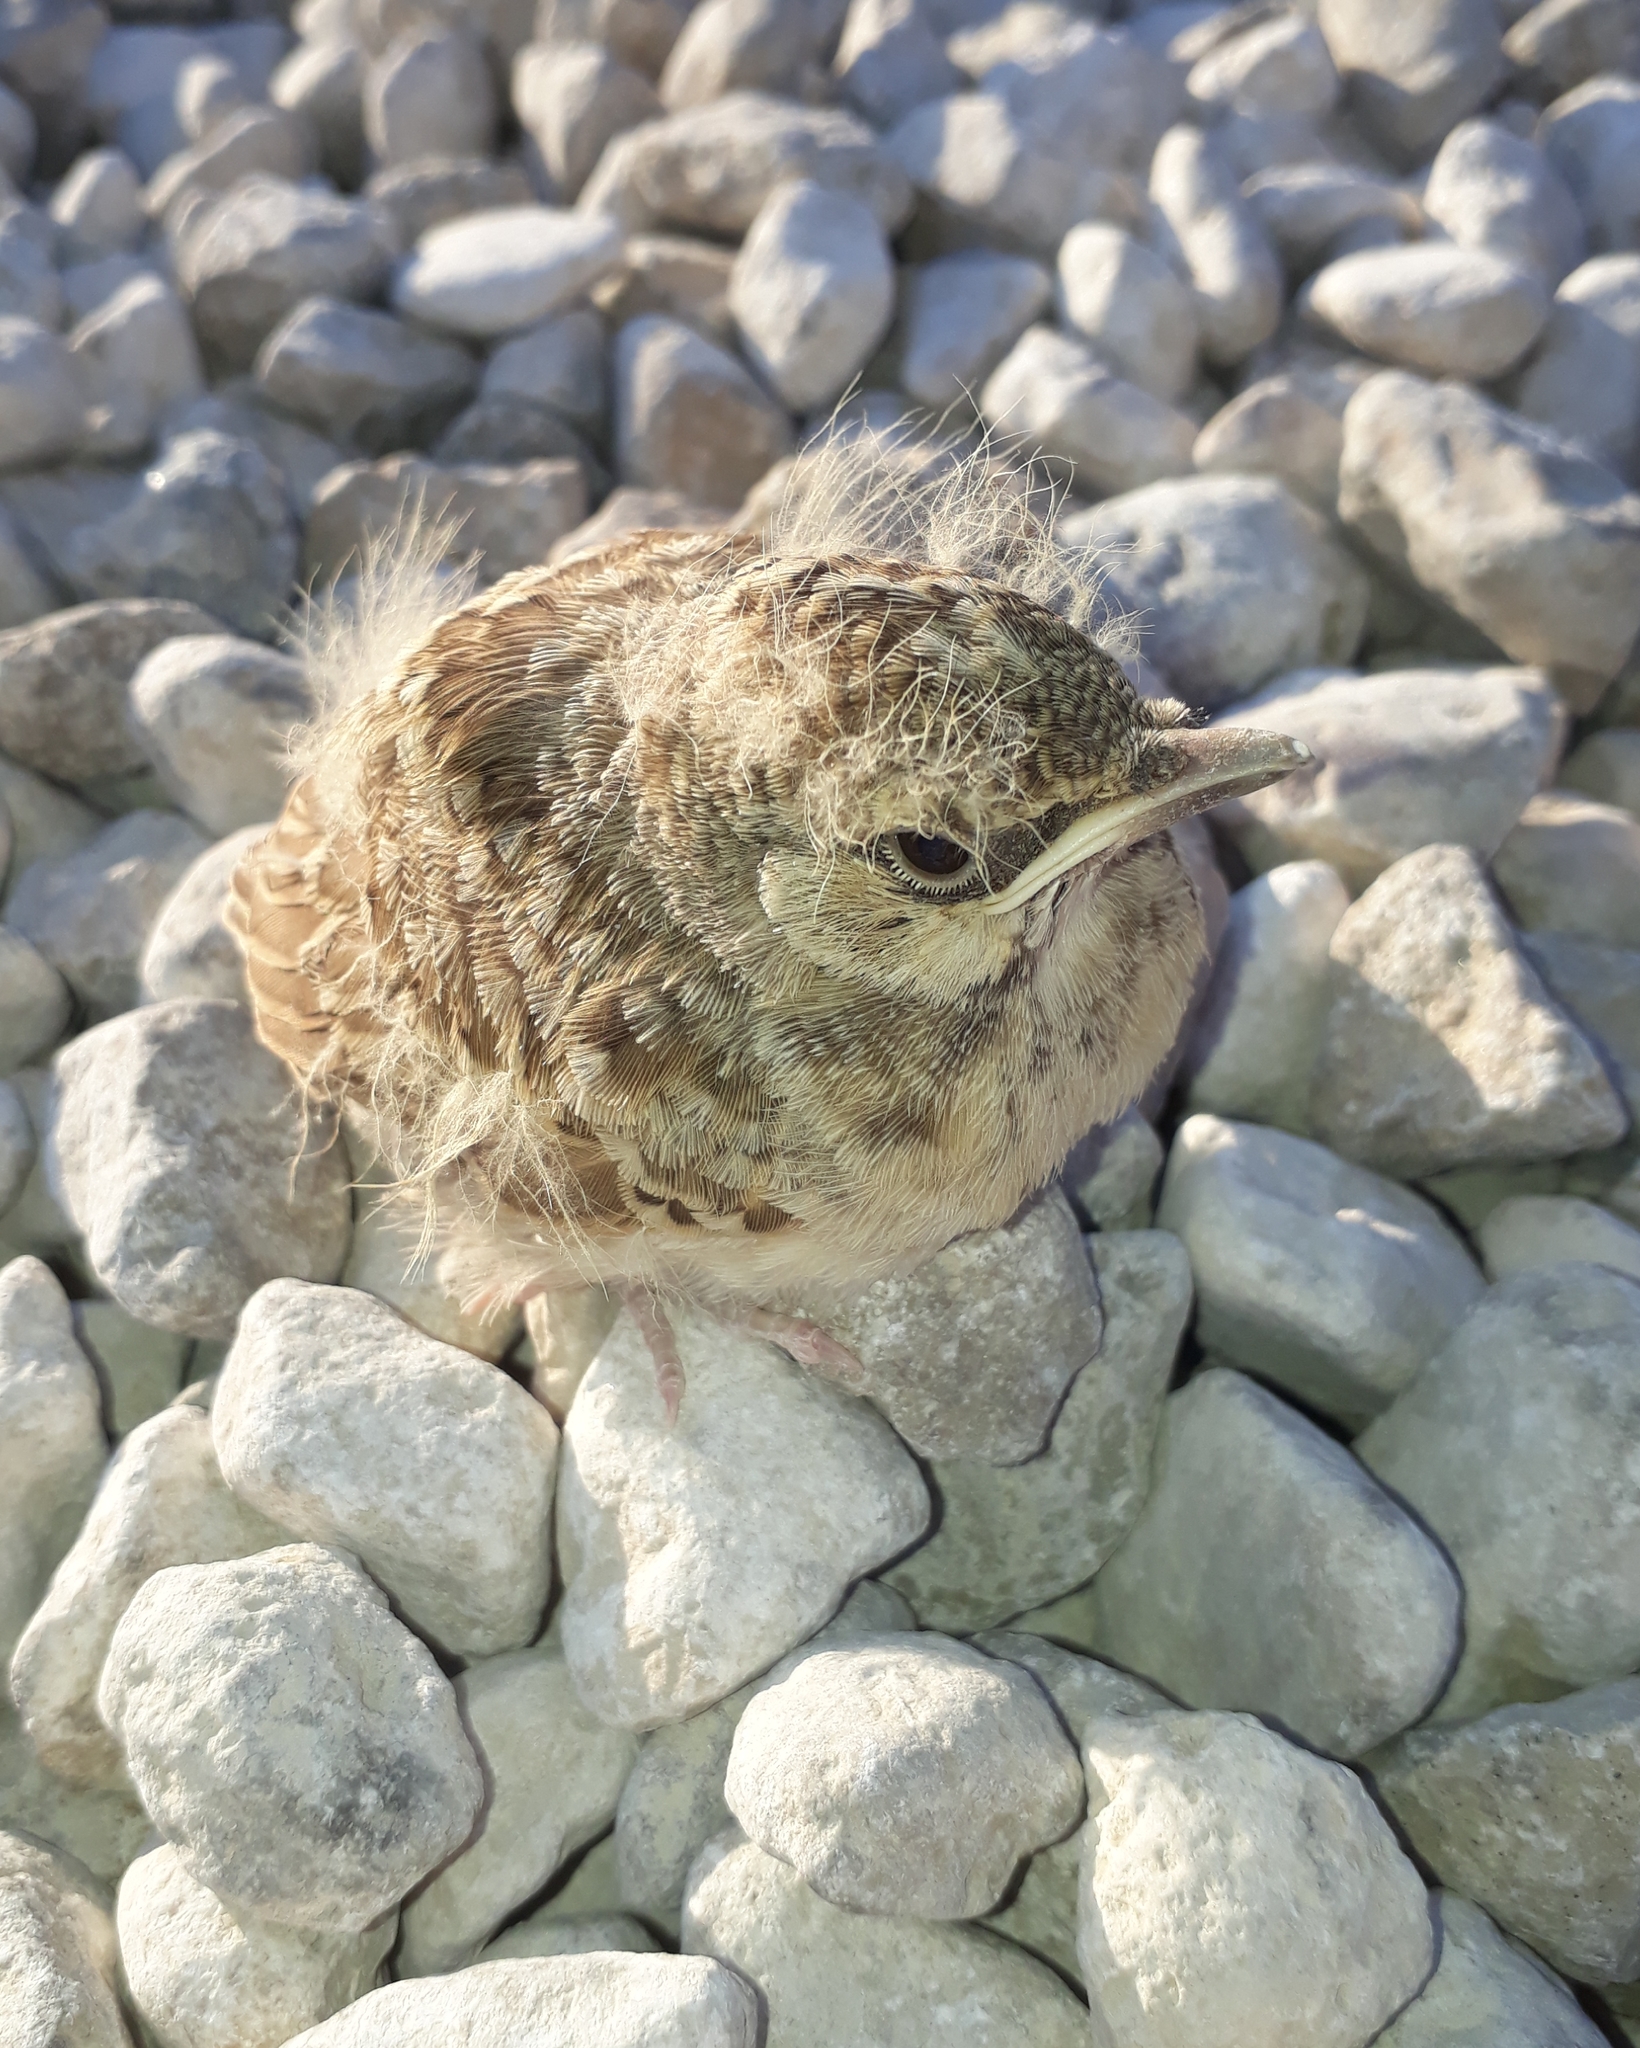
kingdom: Animalia
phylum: Chordata
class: Aves
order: Passeriformes
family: Alaudidae
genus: Galerida
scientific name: Galerida cristata
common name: Crested lark
